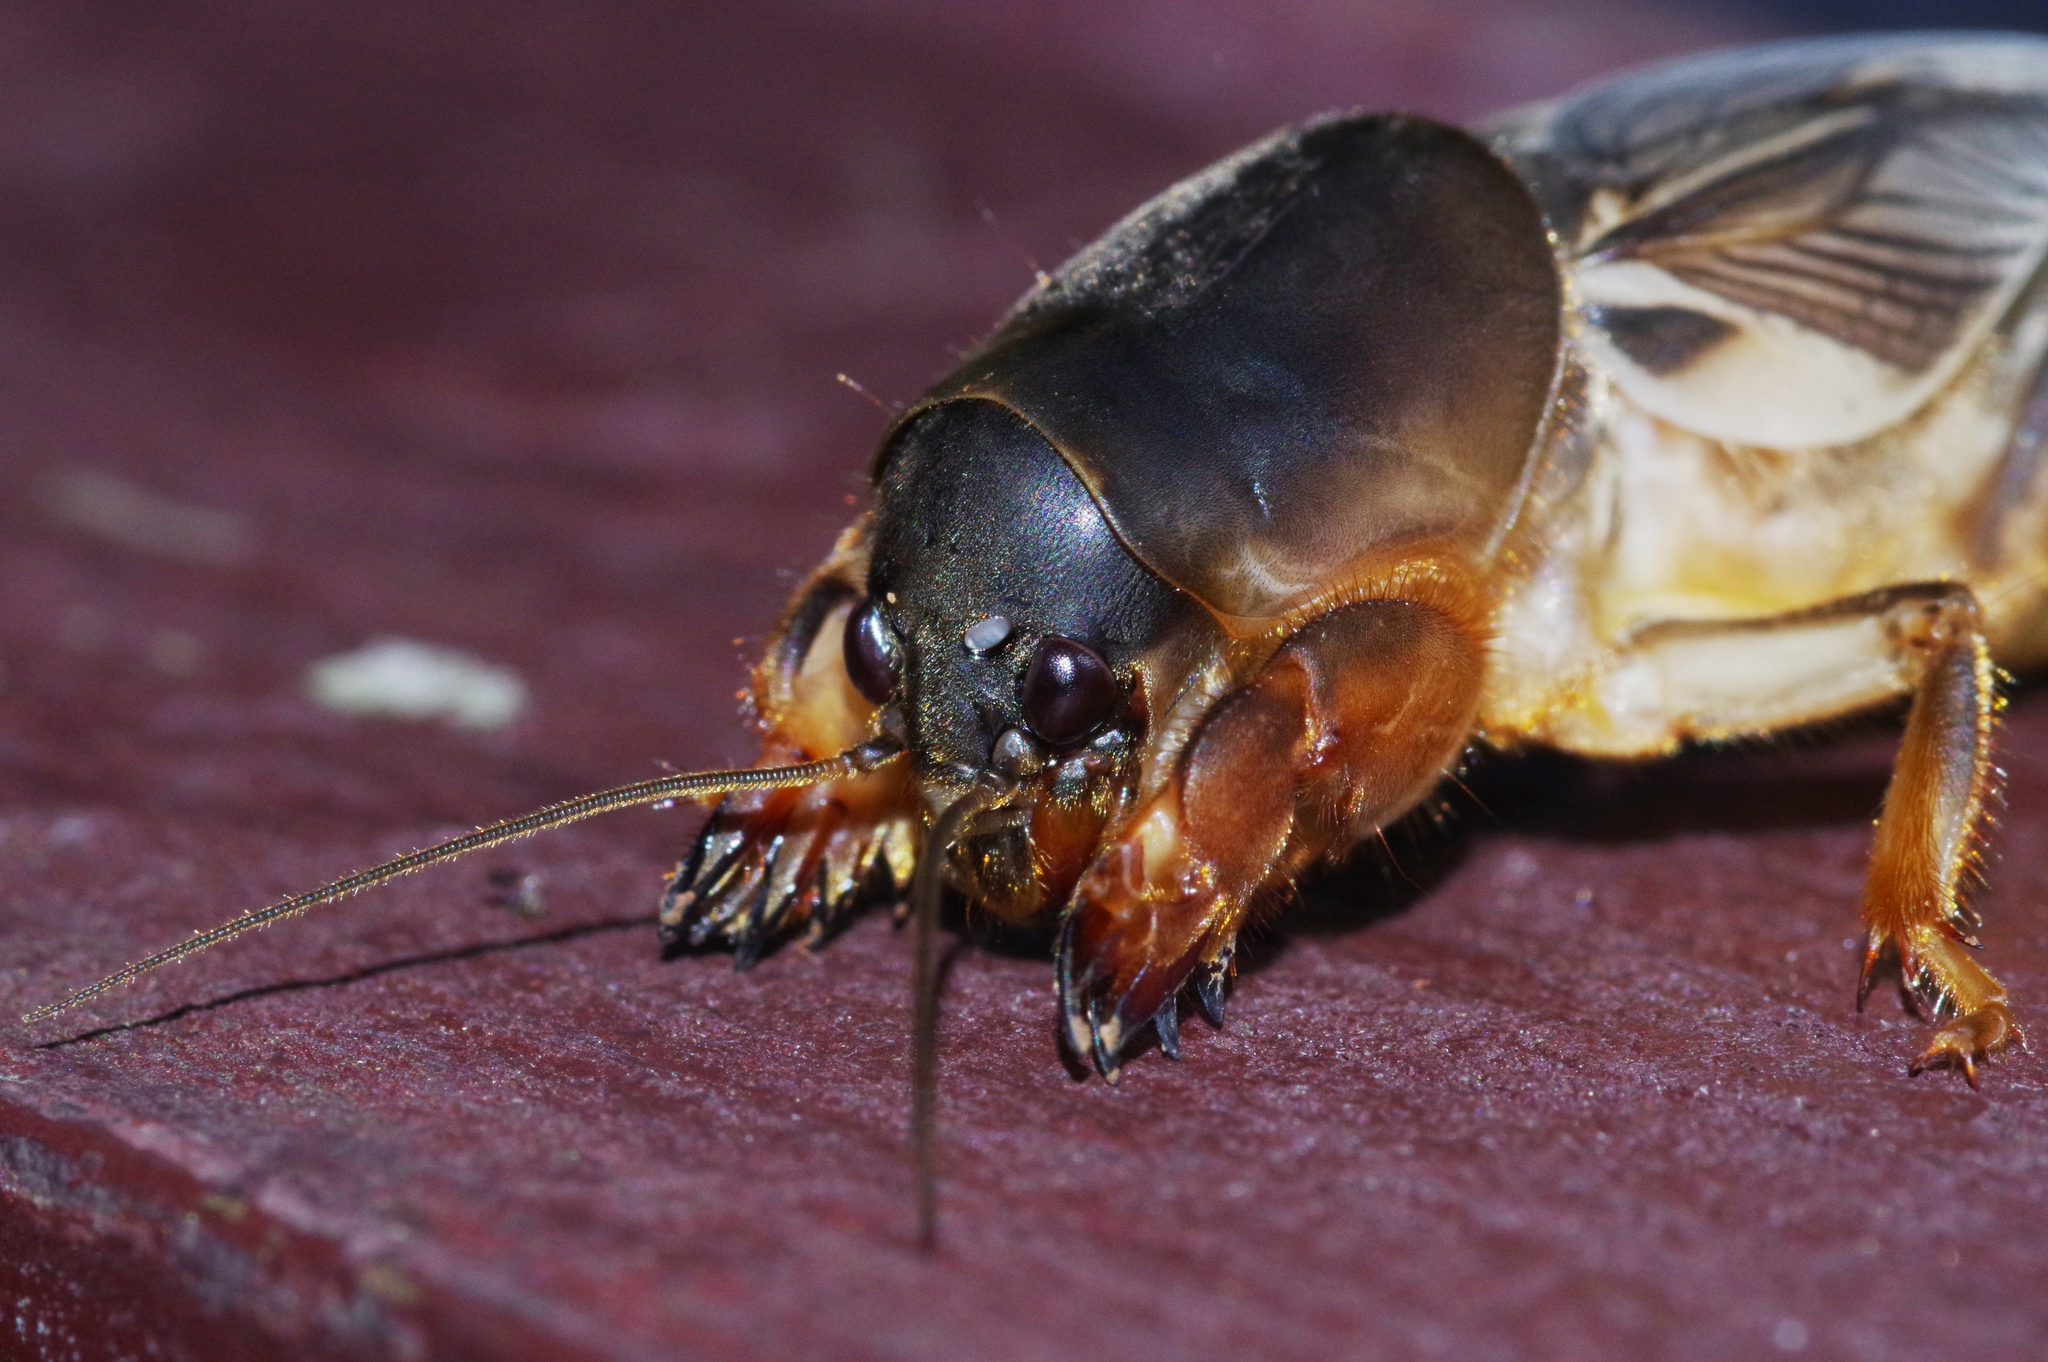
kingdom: Animalia
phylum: Arthropoda
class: Insecta
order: Orthoptera
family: Gryllotalpidae
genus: Gryllotalpa
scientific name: Gryllotalpa orientalis
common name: Grasshopper
